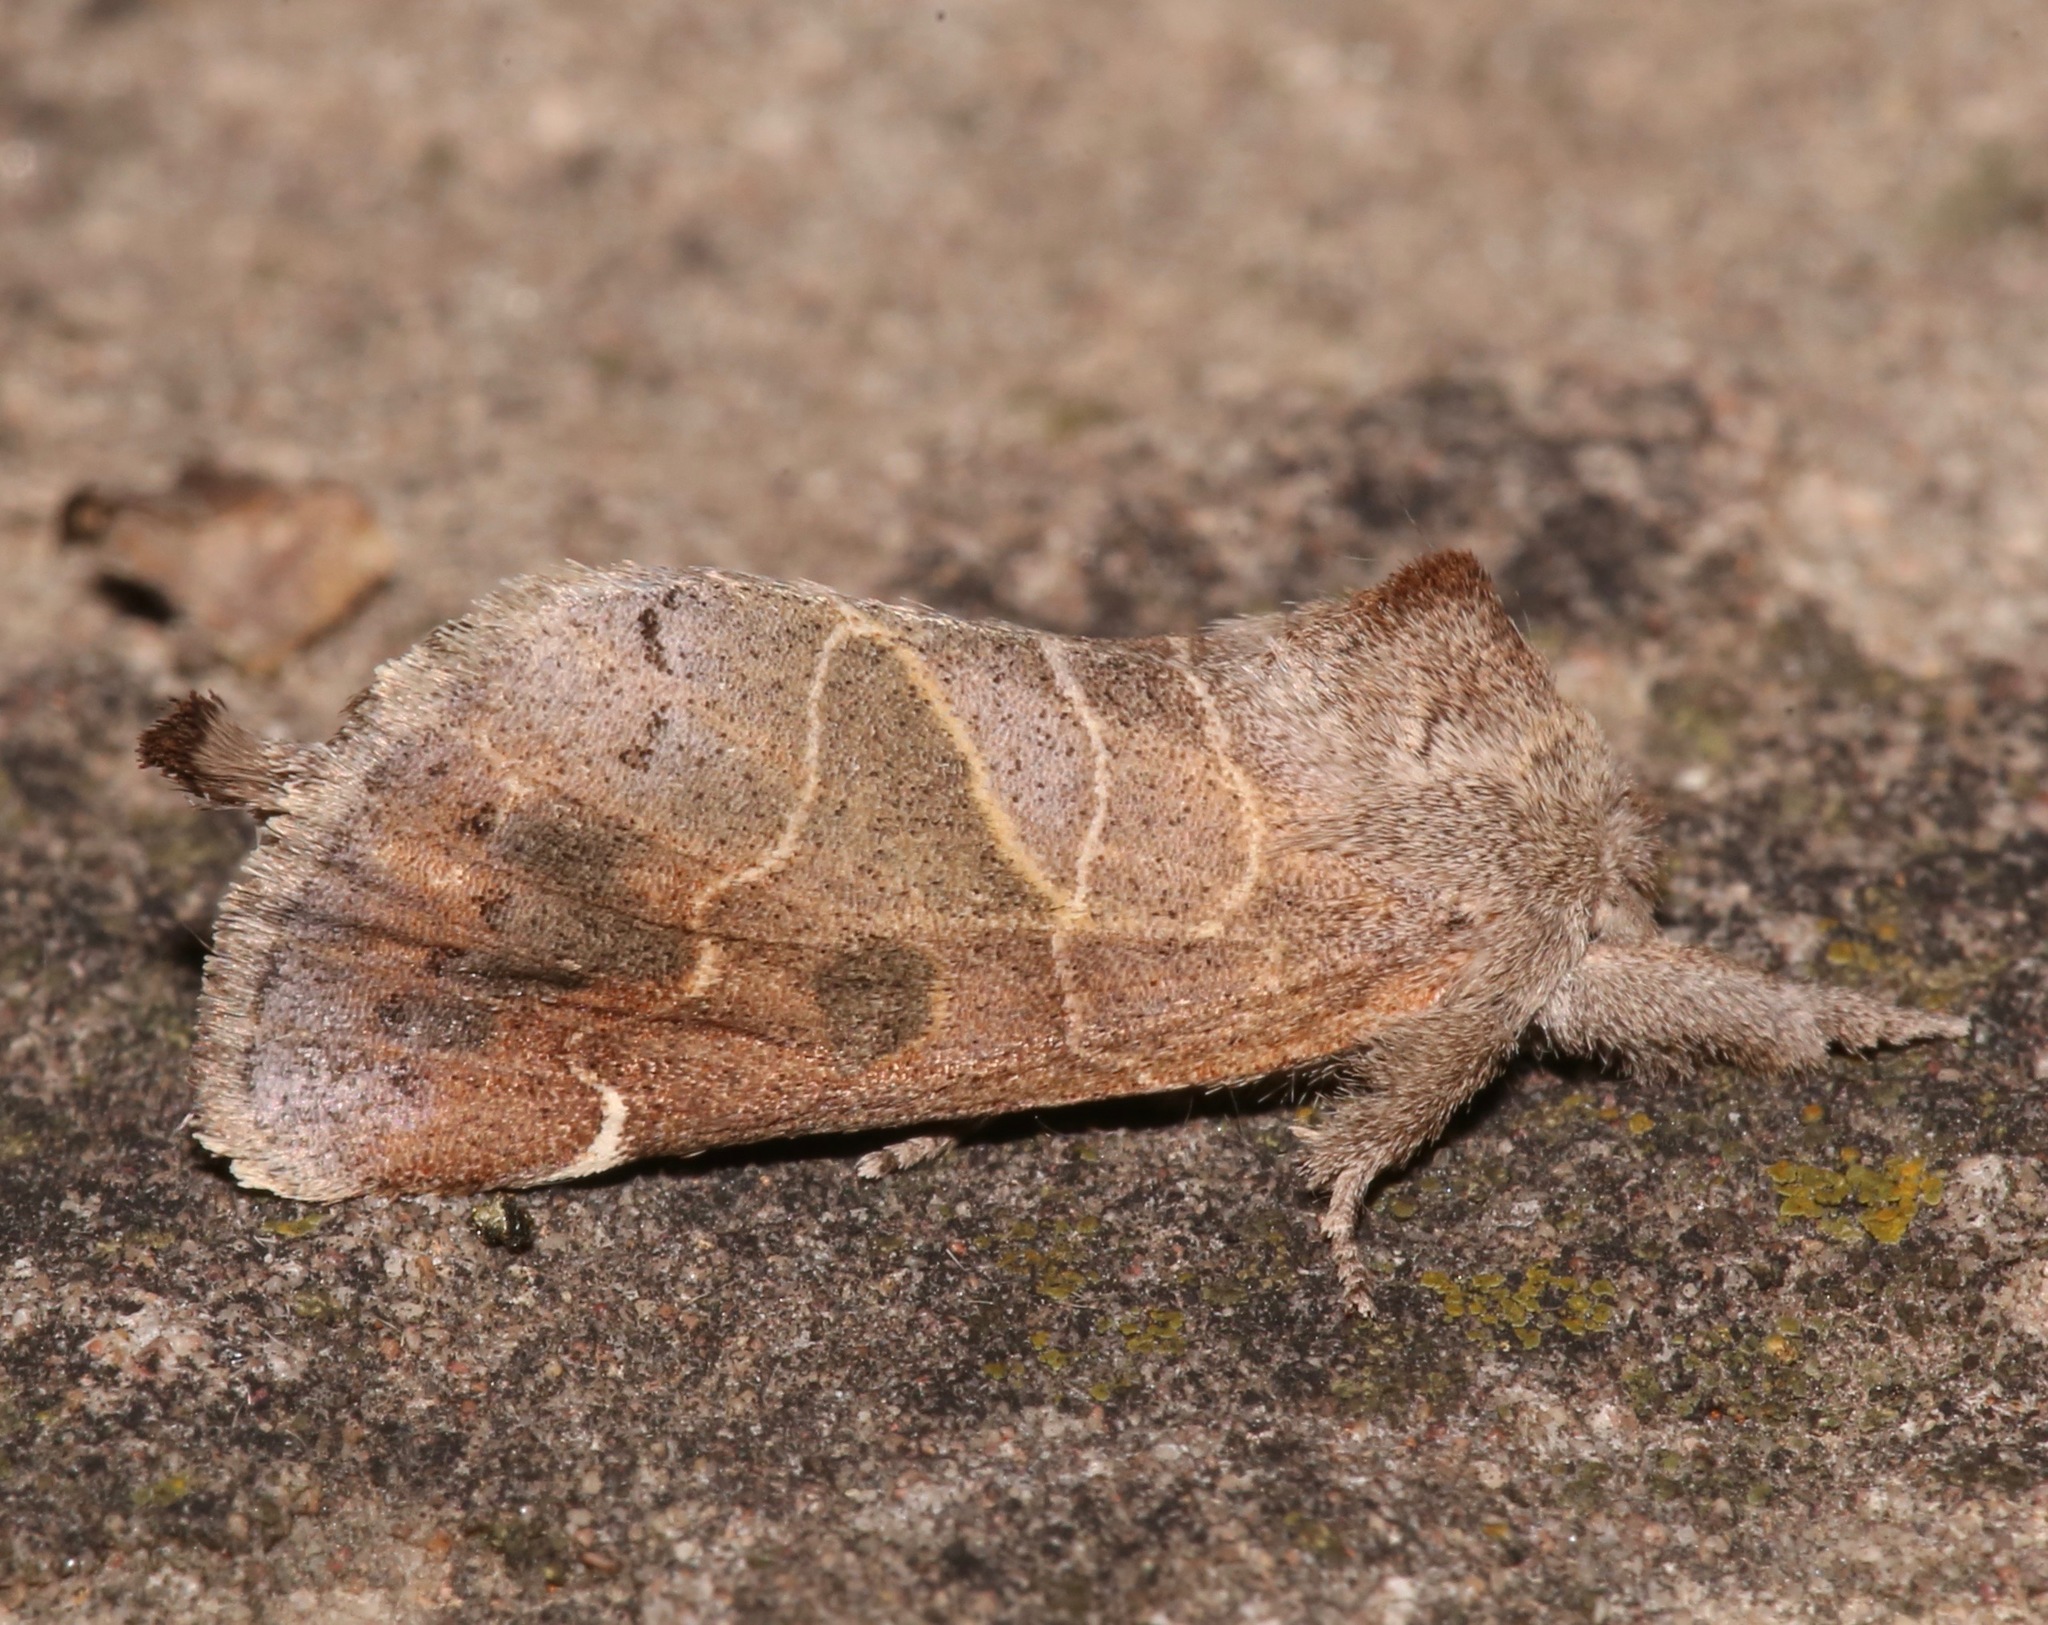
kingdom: Animalia
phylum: Arthropoda
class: Insecta
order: Lepidoptera
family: Notodontidae
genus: Clostera
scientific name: Clostera inornata
